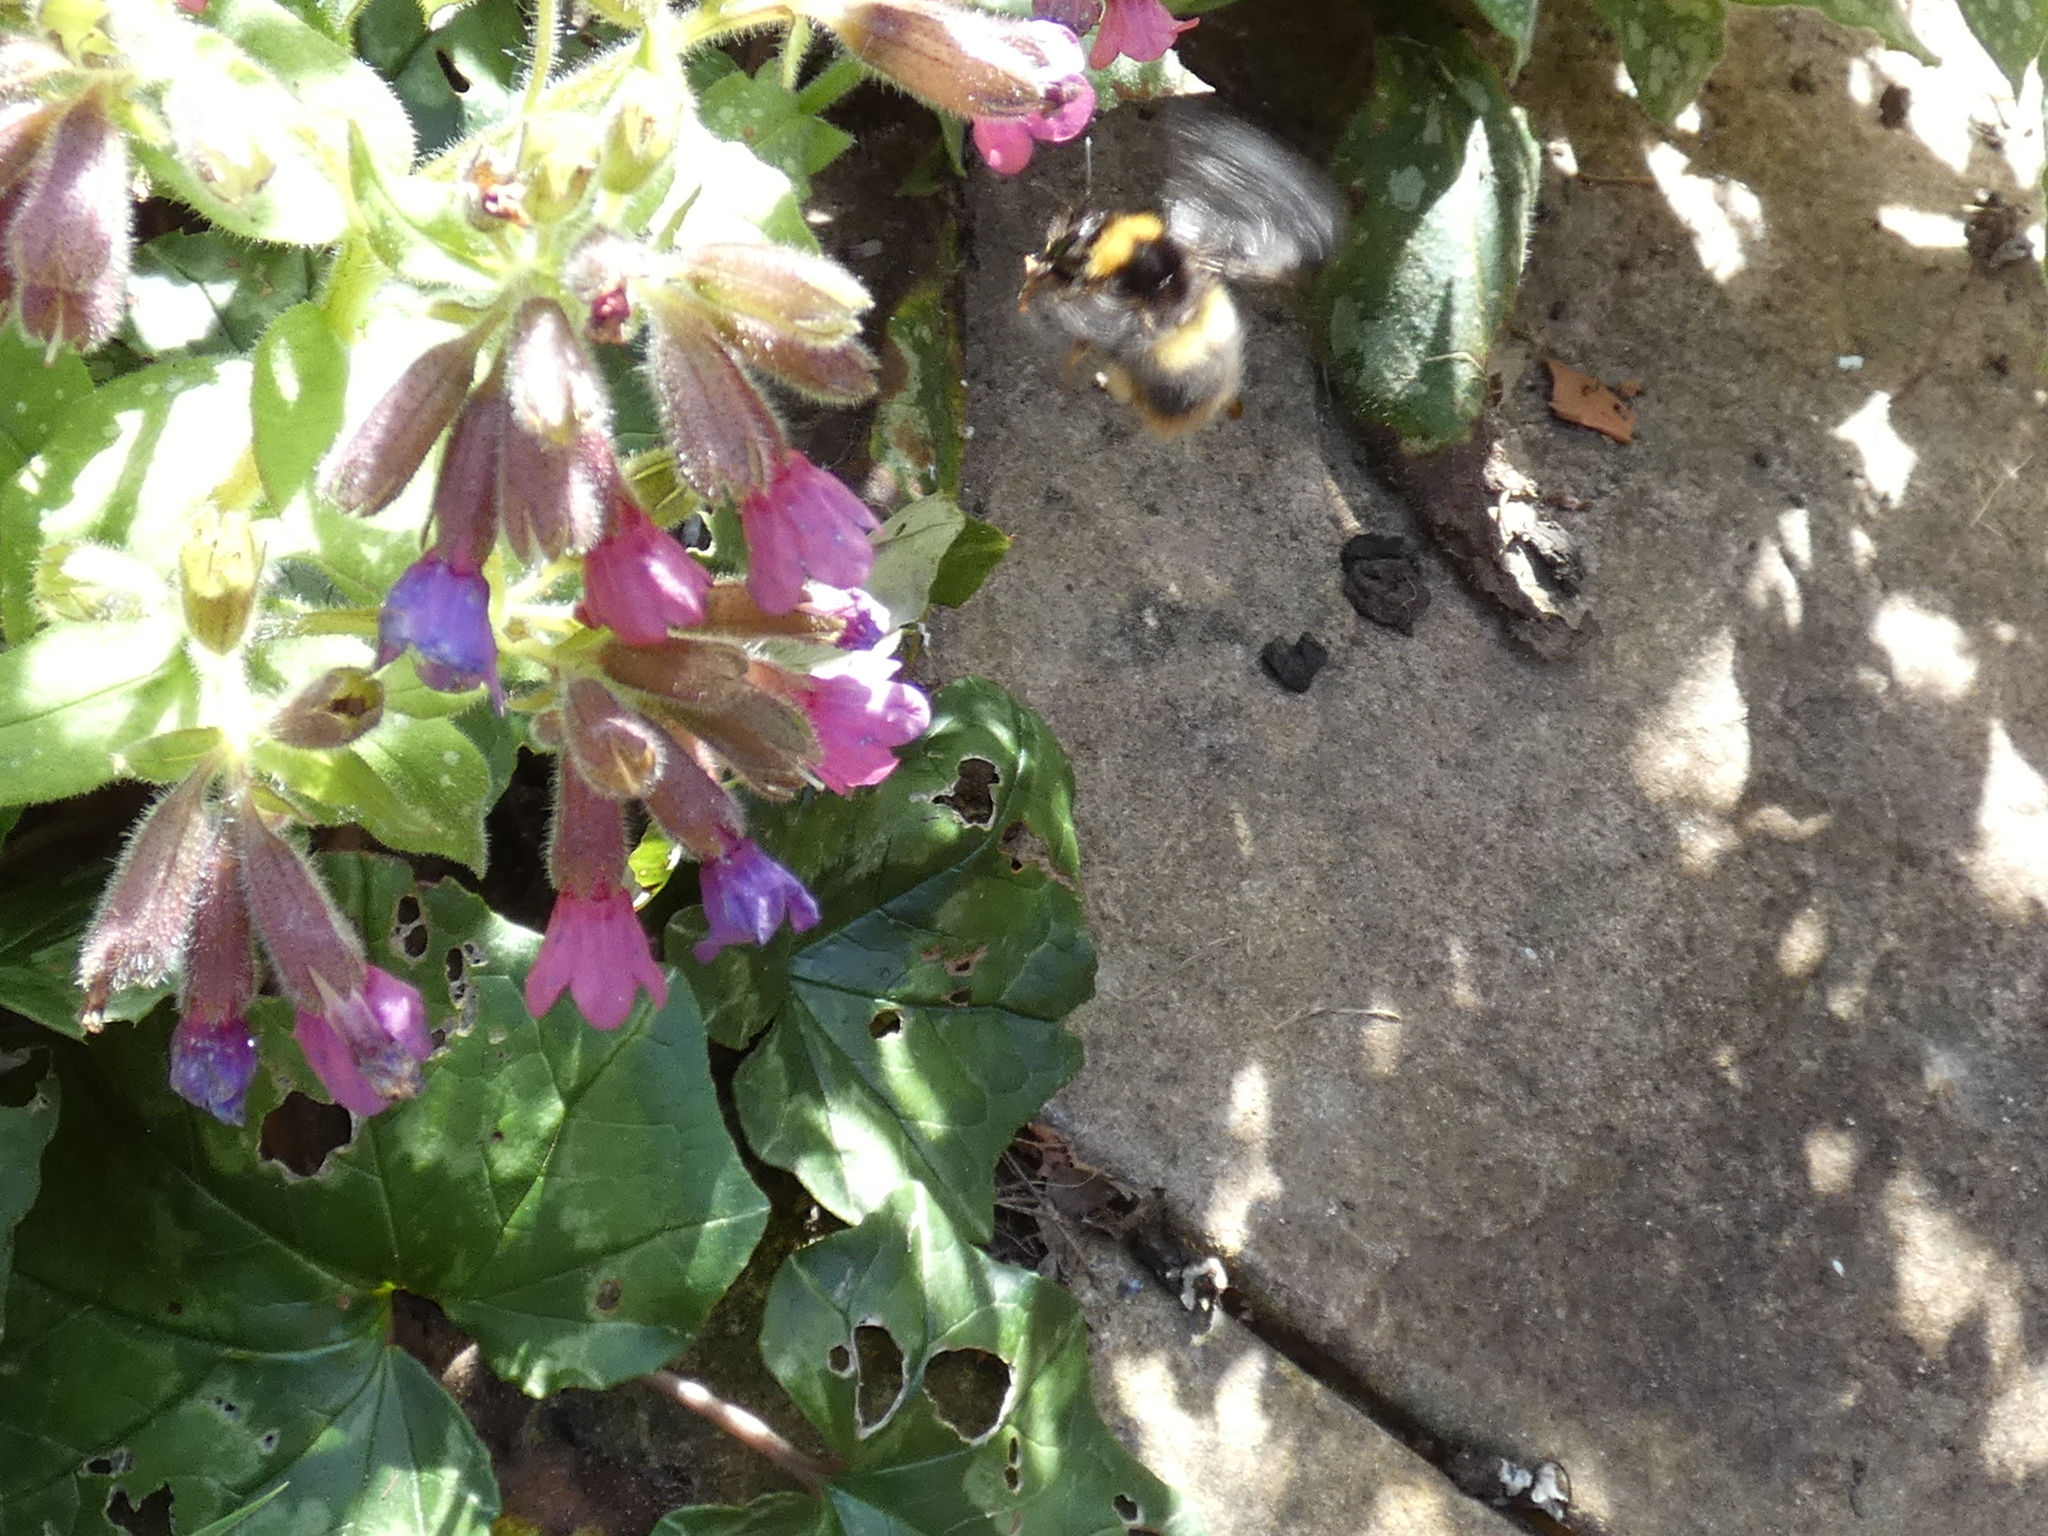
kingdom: Animalia
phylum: Arthropoda
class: Insecta
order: Hymenoptera
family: Apidae
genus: Bombus
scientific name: Bombus pratorum
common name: Early humble-bee
